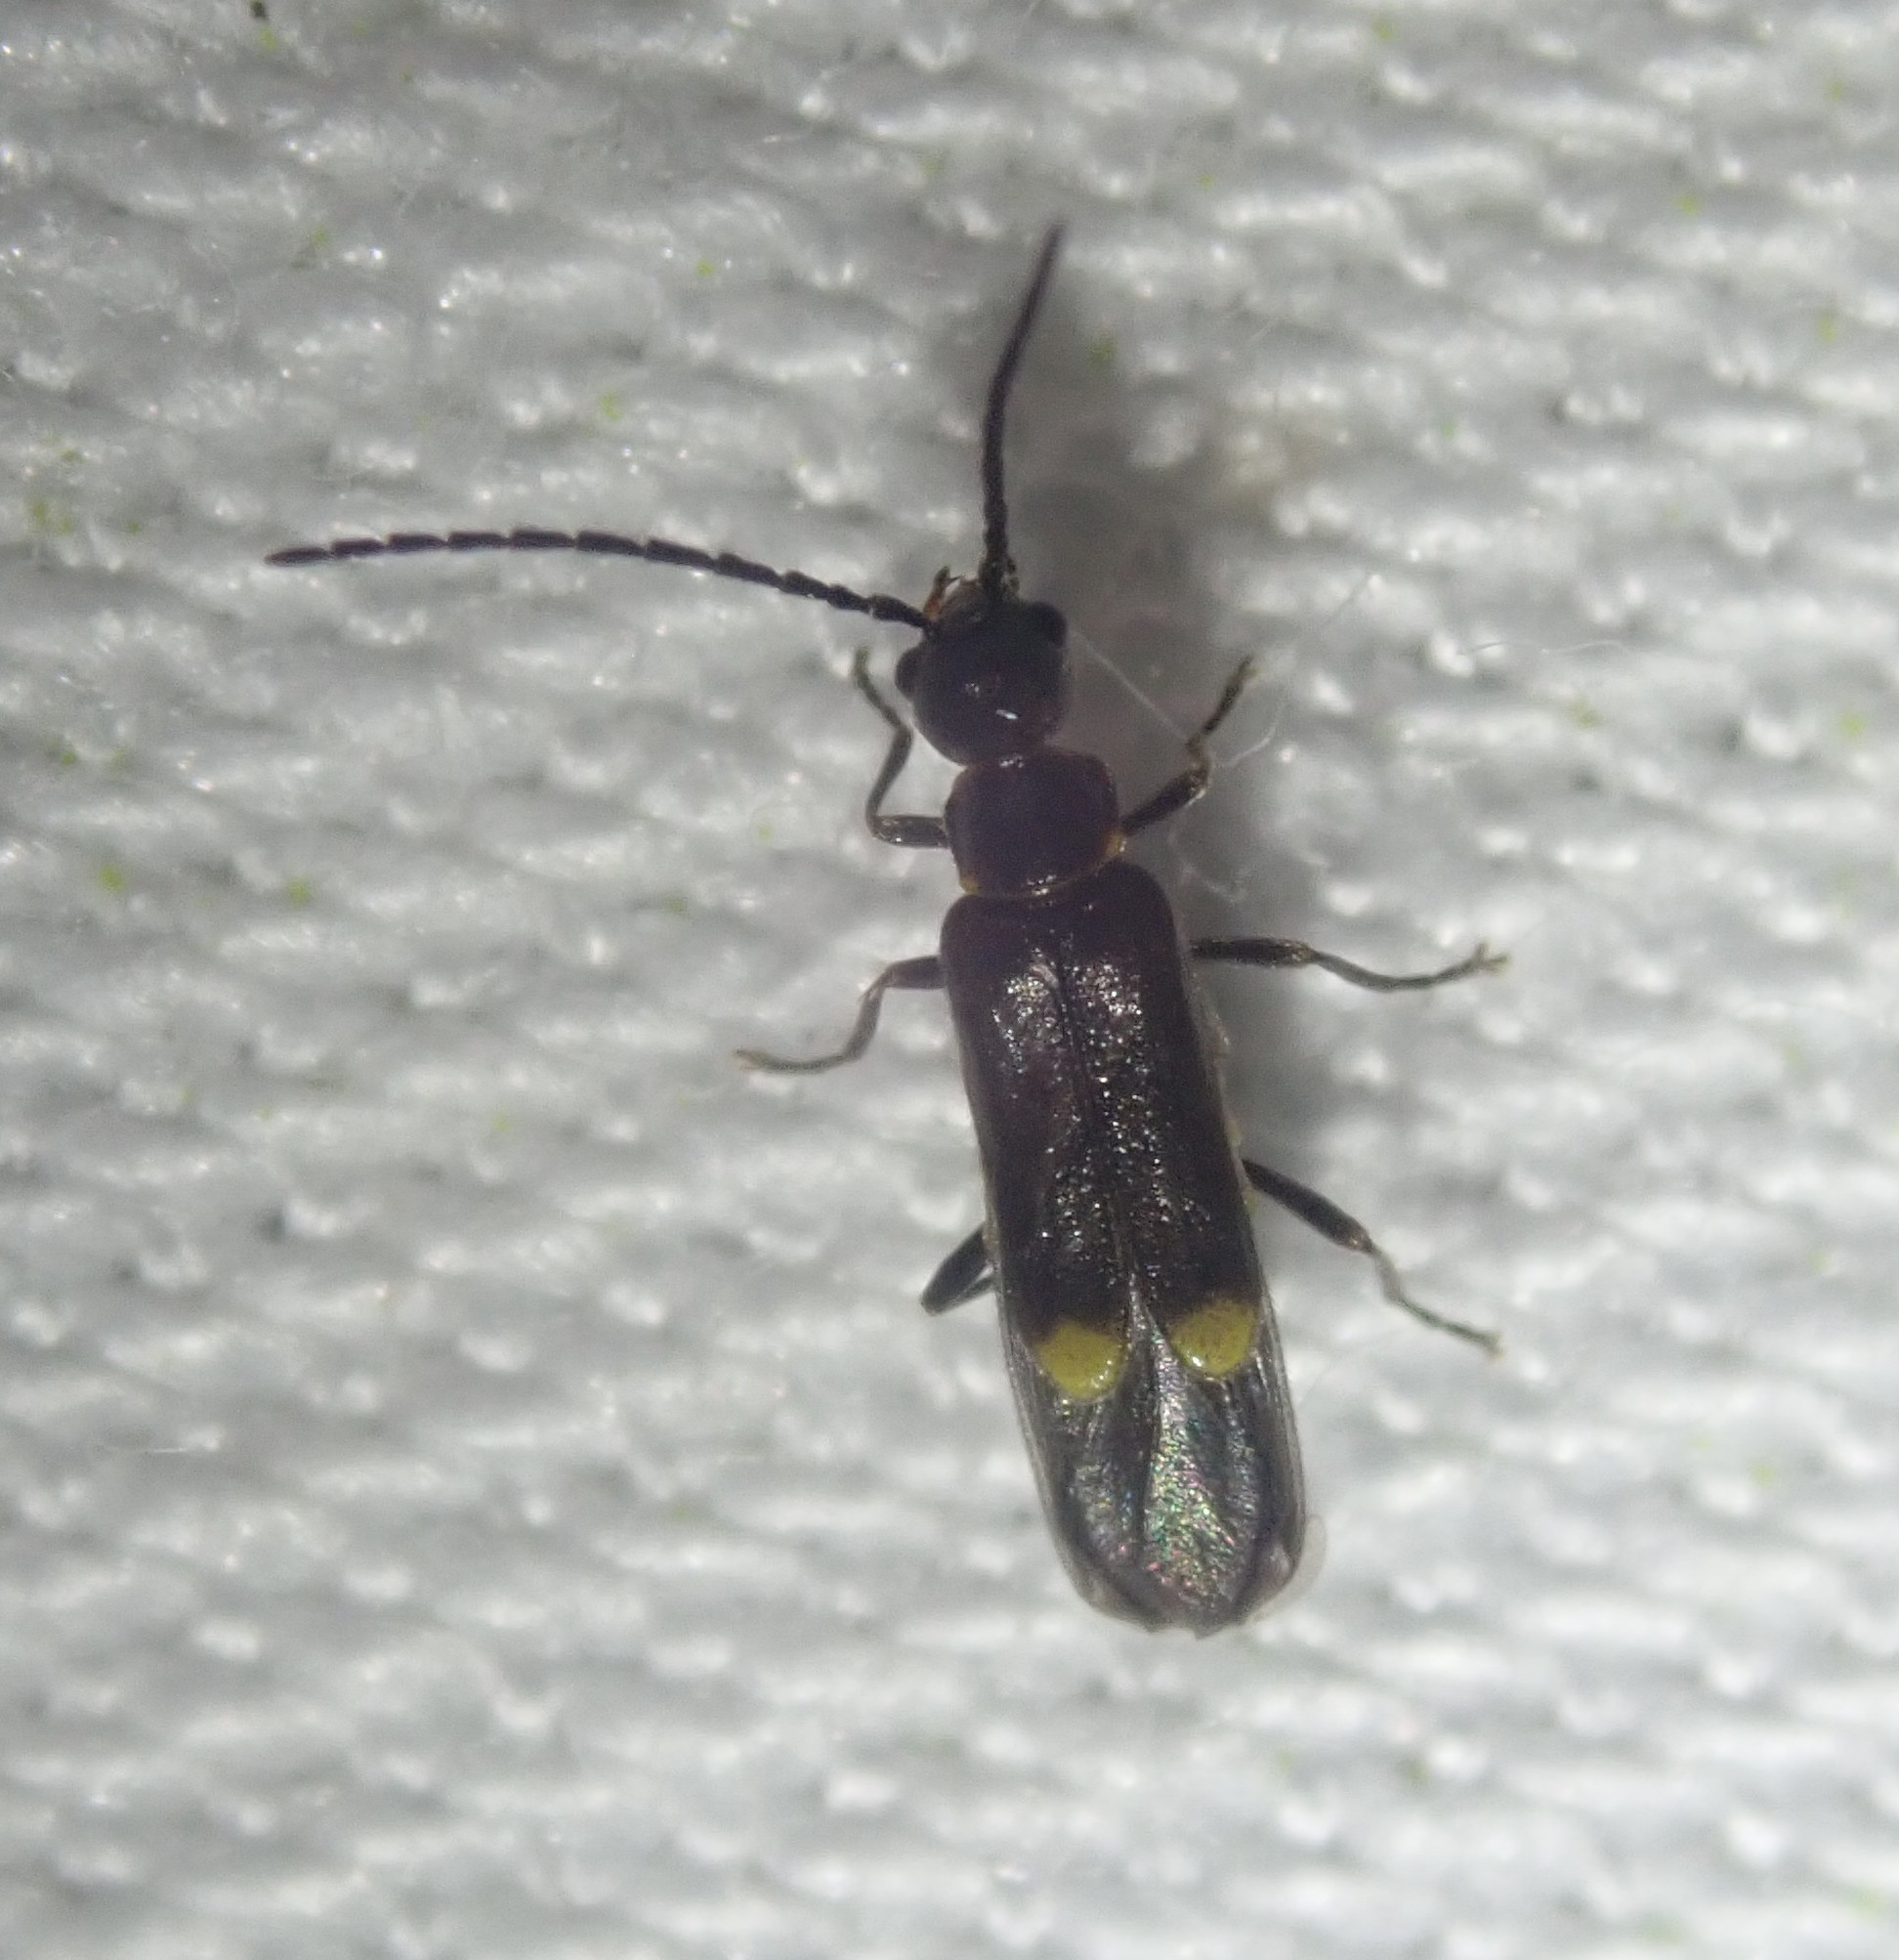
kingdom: Animalia
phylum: Arthropoda
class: Insecta
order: Coleoptera
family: Cantharidae
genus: Malthodes
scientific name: Malthodes
